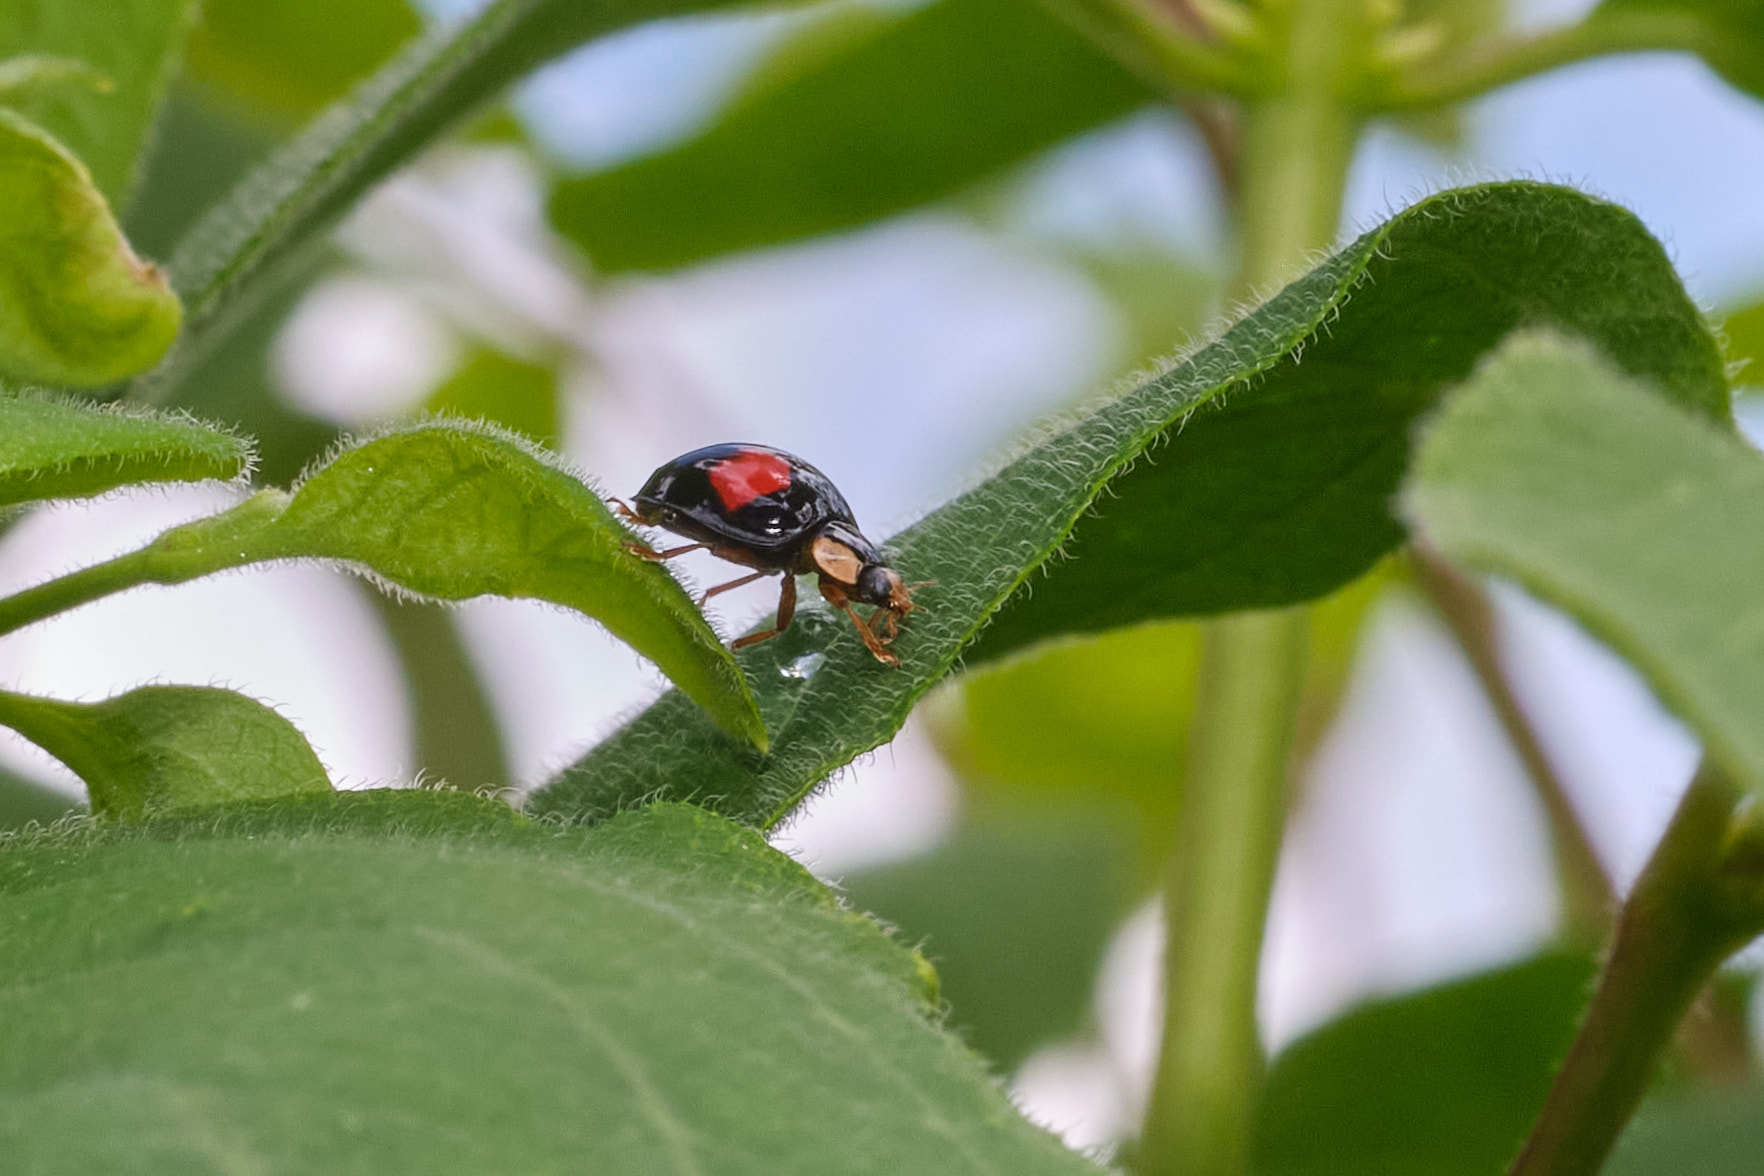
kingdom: Animalia
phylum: Arthropoda
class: Insecta
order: Coleoptera
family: Coccinellidae
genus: Harmonia
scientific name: Harmonia axyridis
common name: Harlequin ladybird
